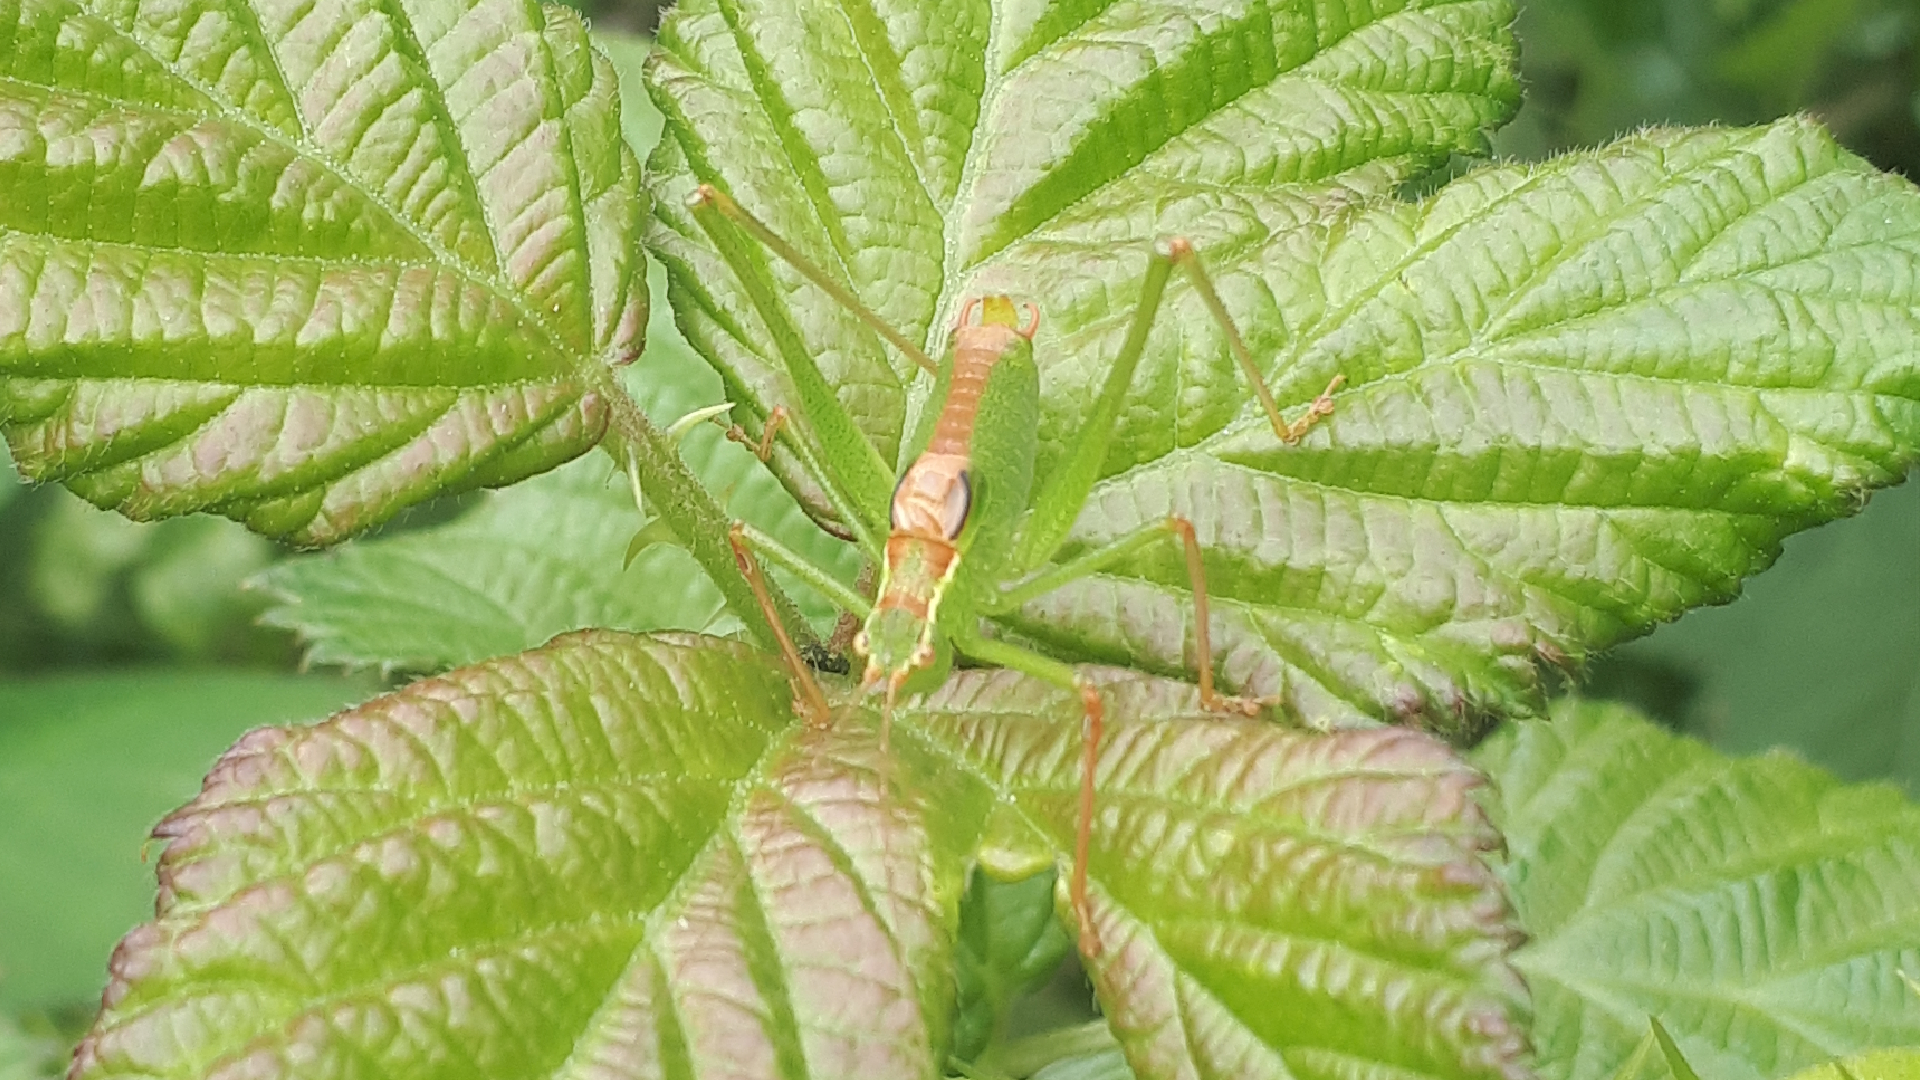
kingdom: Animalia
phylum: Arthropoda
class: Insecta
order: Orthoptera
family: Tettigoniidae
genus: Leptophyes
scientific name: Leptophyes punctatissima
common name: Speckled bush-cricket
